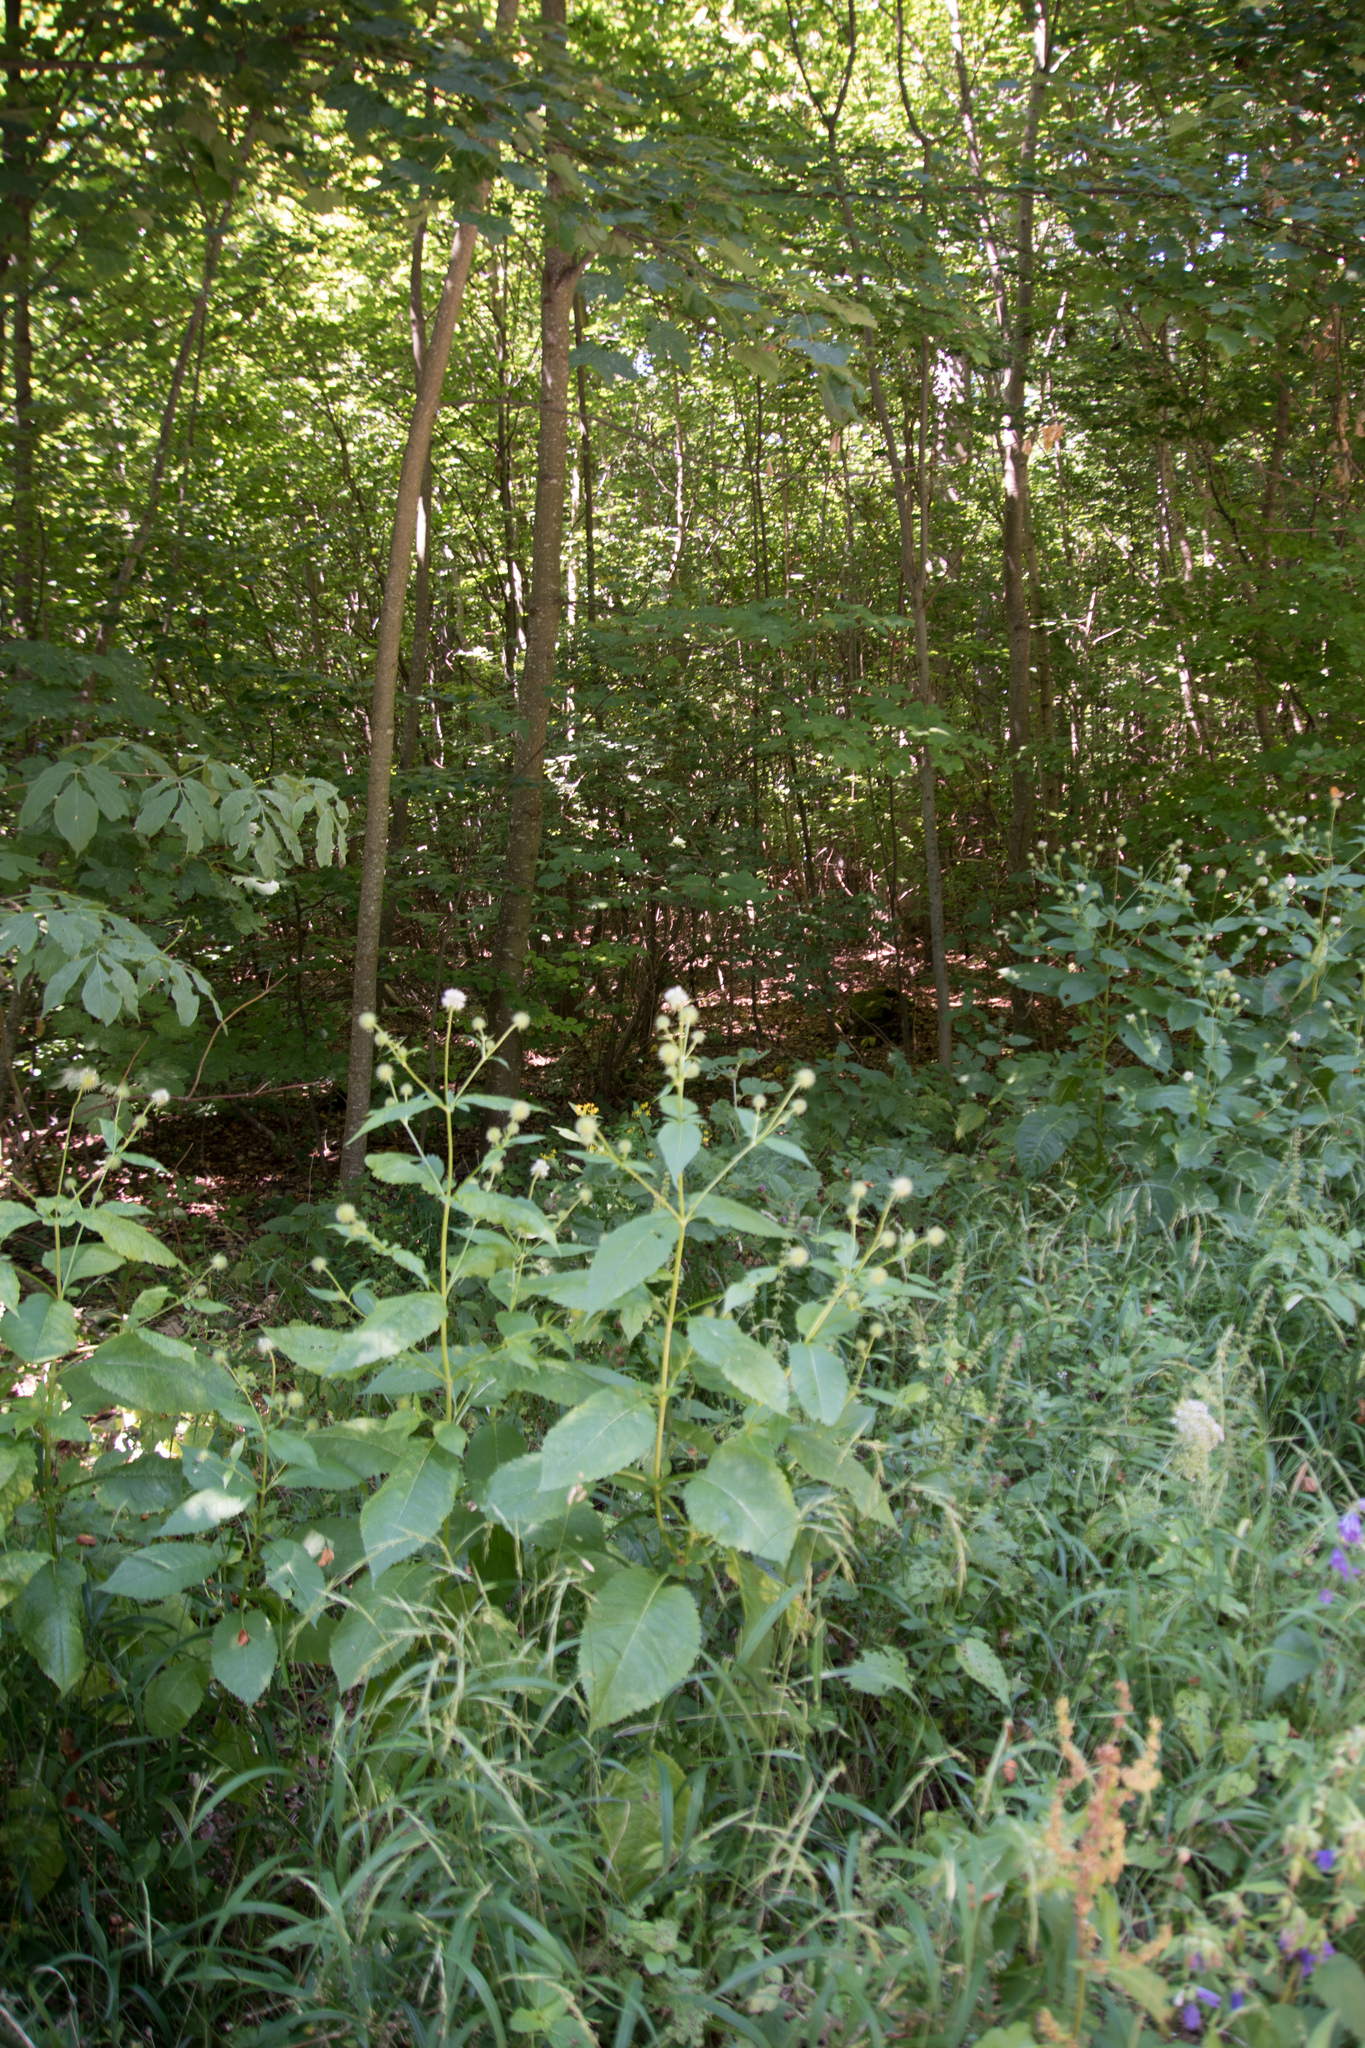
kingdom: Plantae
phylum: Tracheophyta
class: Magnoliopsida
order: Dipsacales
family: Caprifoliaceae
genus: Dipsacus
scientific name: Dipsacus pilosus
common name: Small teasel
